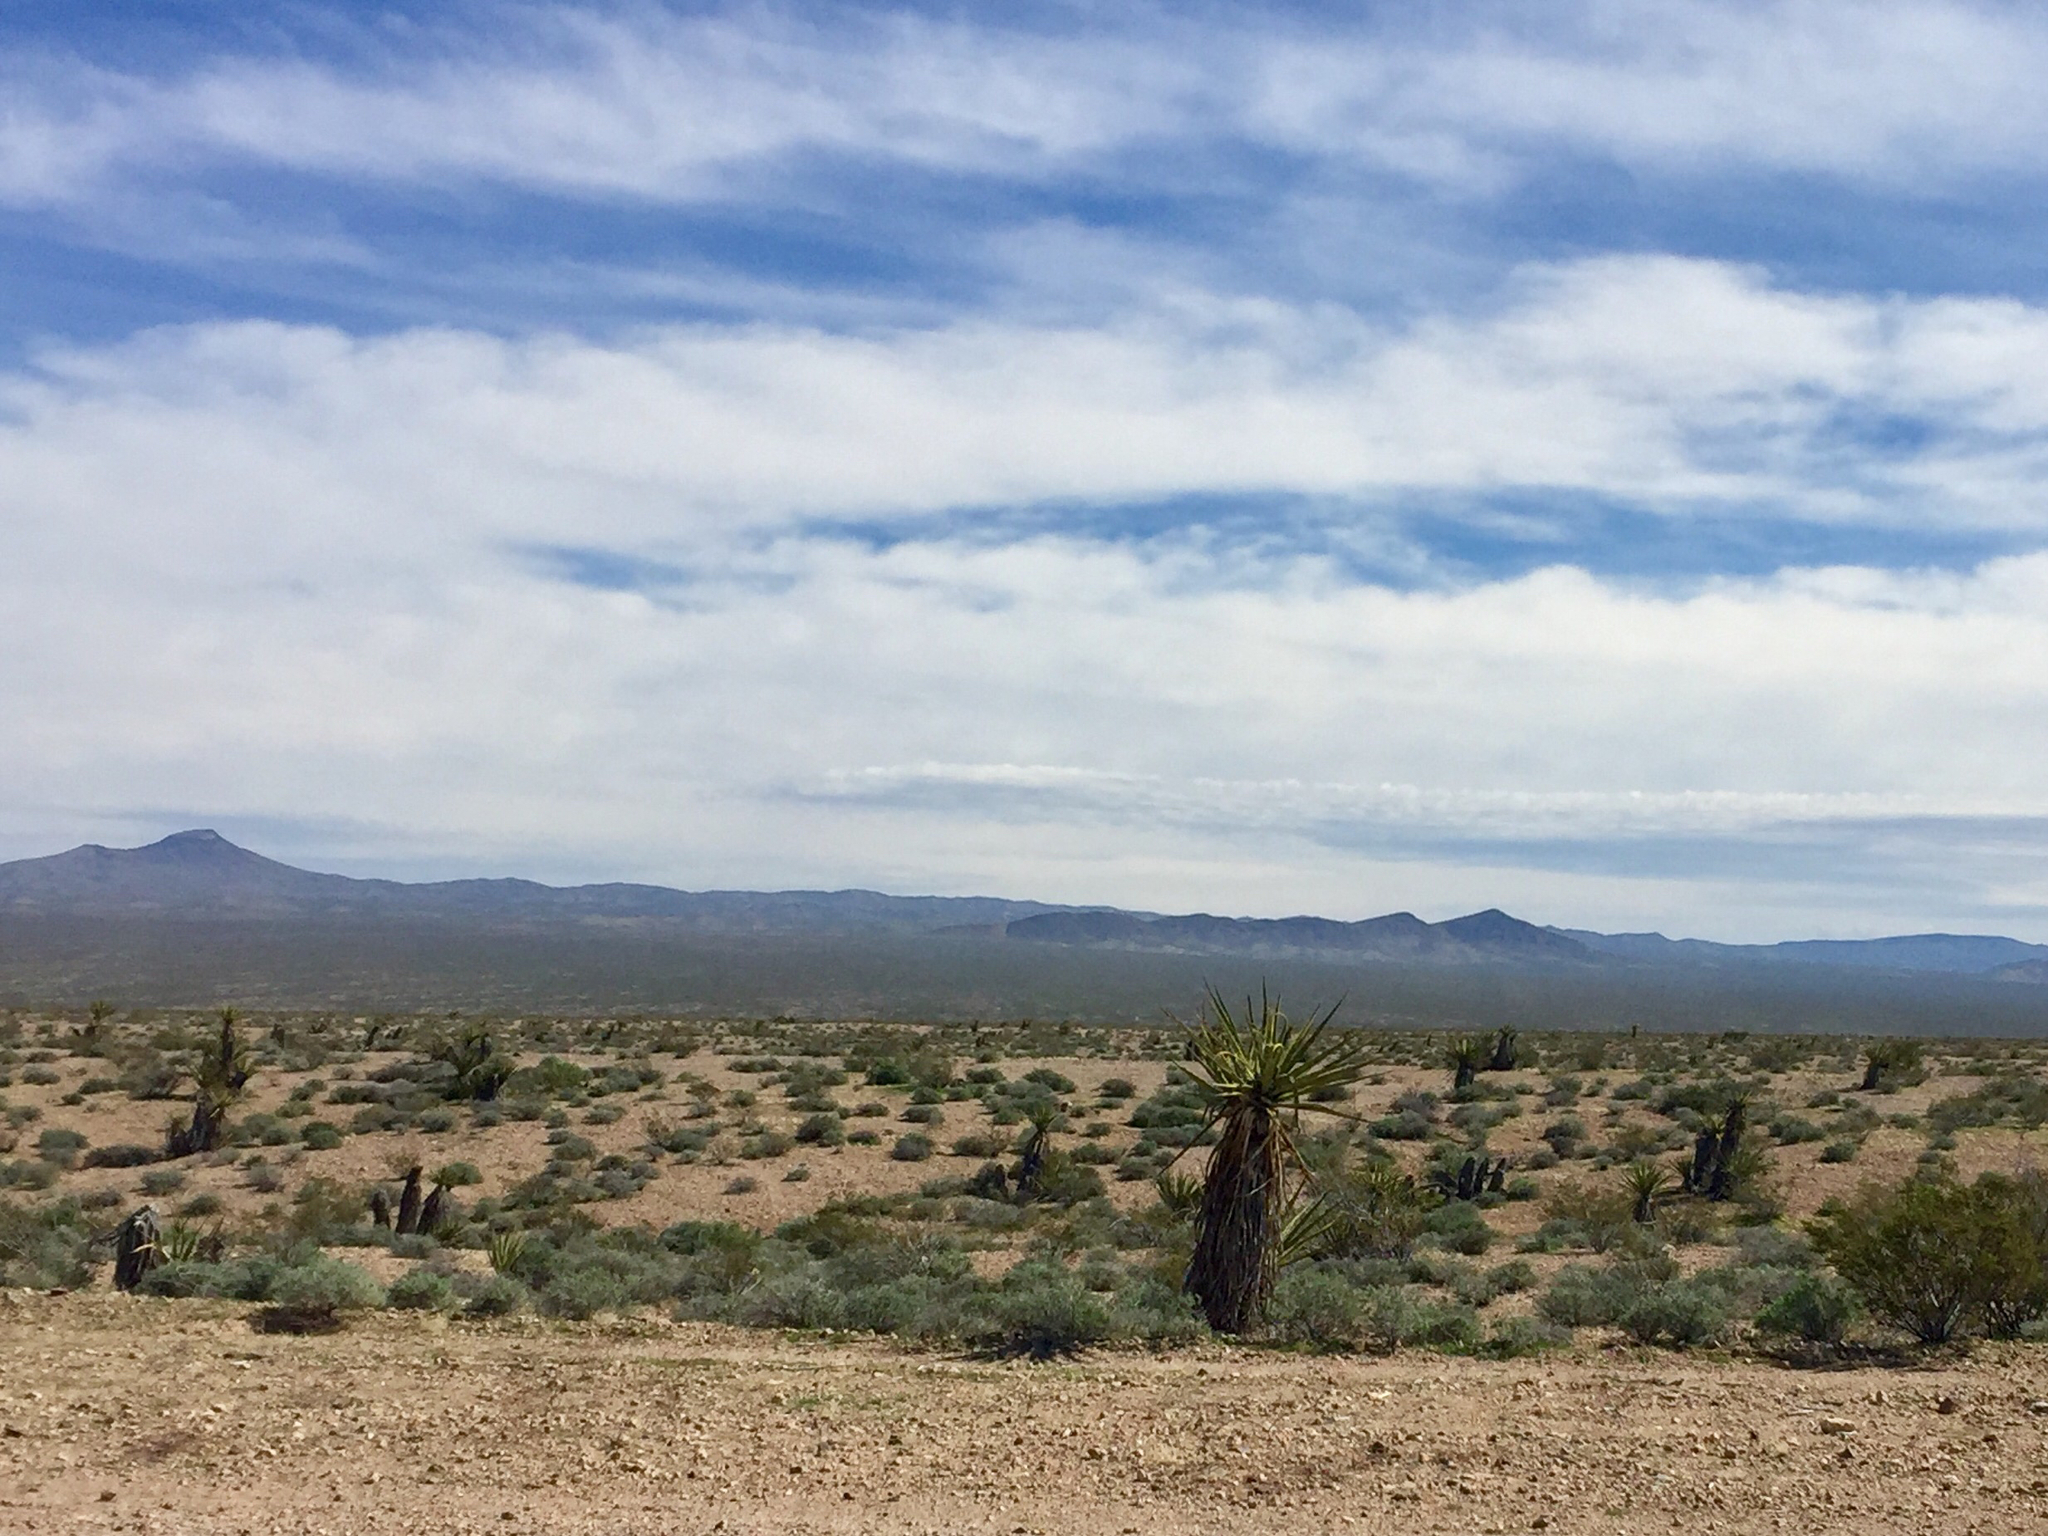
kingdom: Plantae
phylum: Tracheophyta
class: Liliopsida
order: Asparagales
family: Asparagaceae
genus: Yucca
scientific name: Yucca schidigera
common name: Mojave yucca
